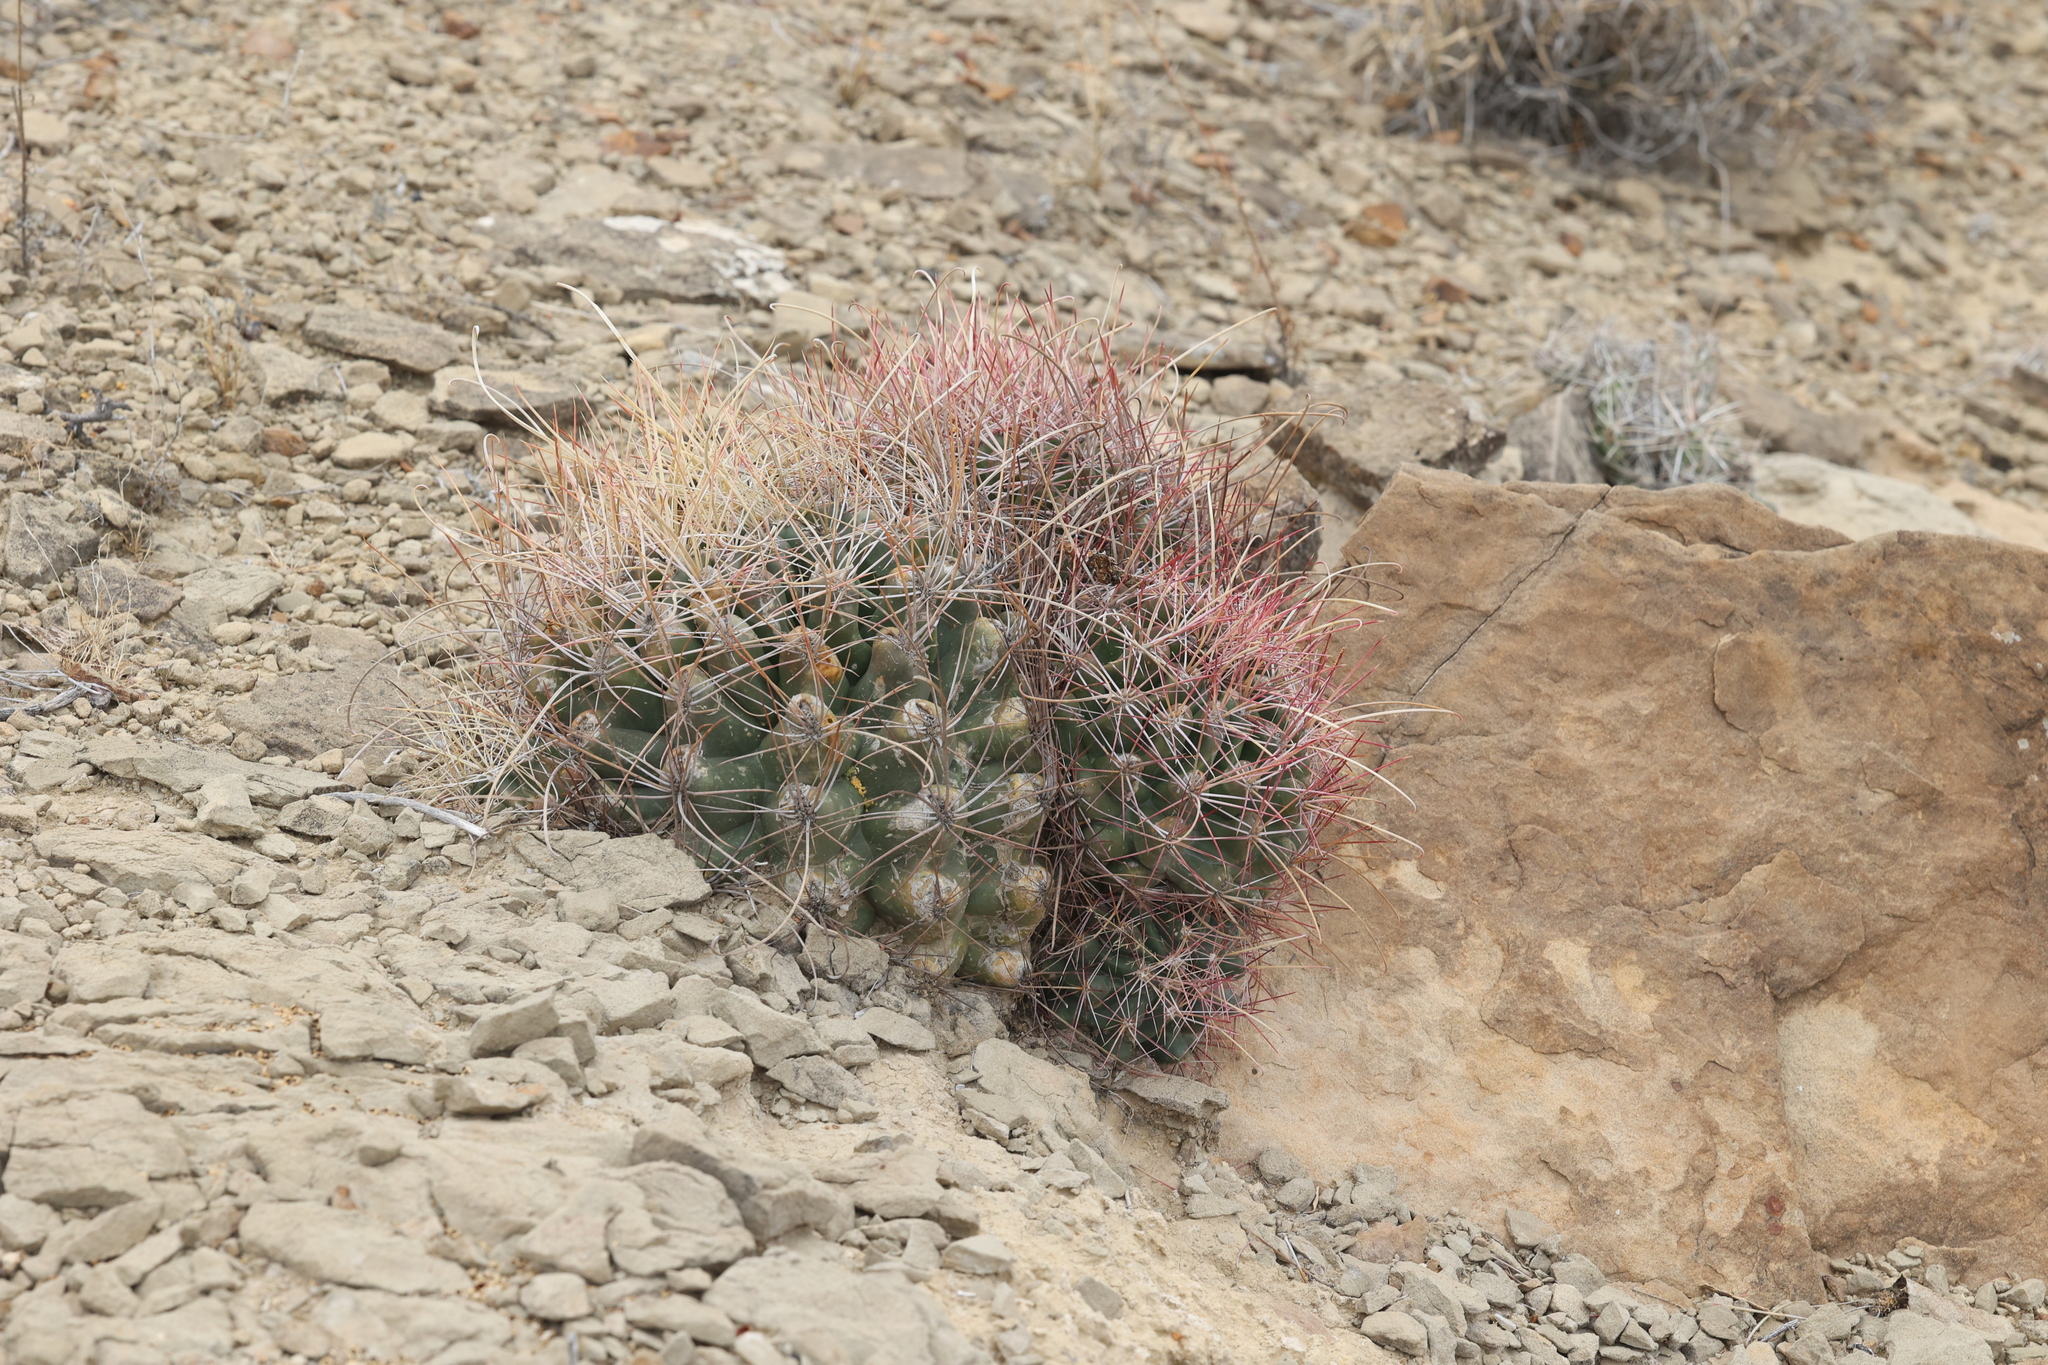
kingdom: Plantae
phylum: Tracheophyta
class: Magnoliopsida
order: Caryophyllales
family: Cactaceae
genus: Bisnaga
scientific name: Bisnaga hamatacantha
